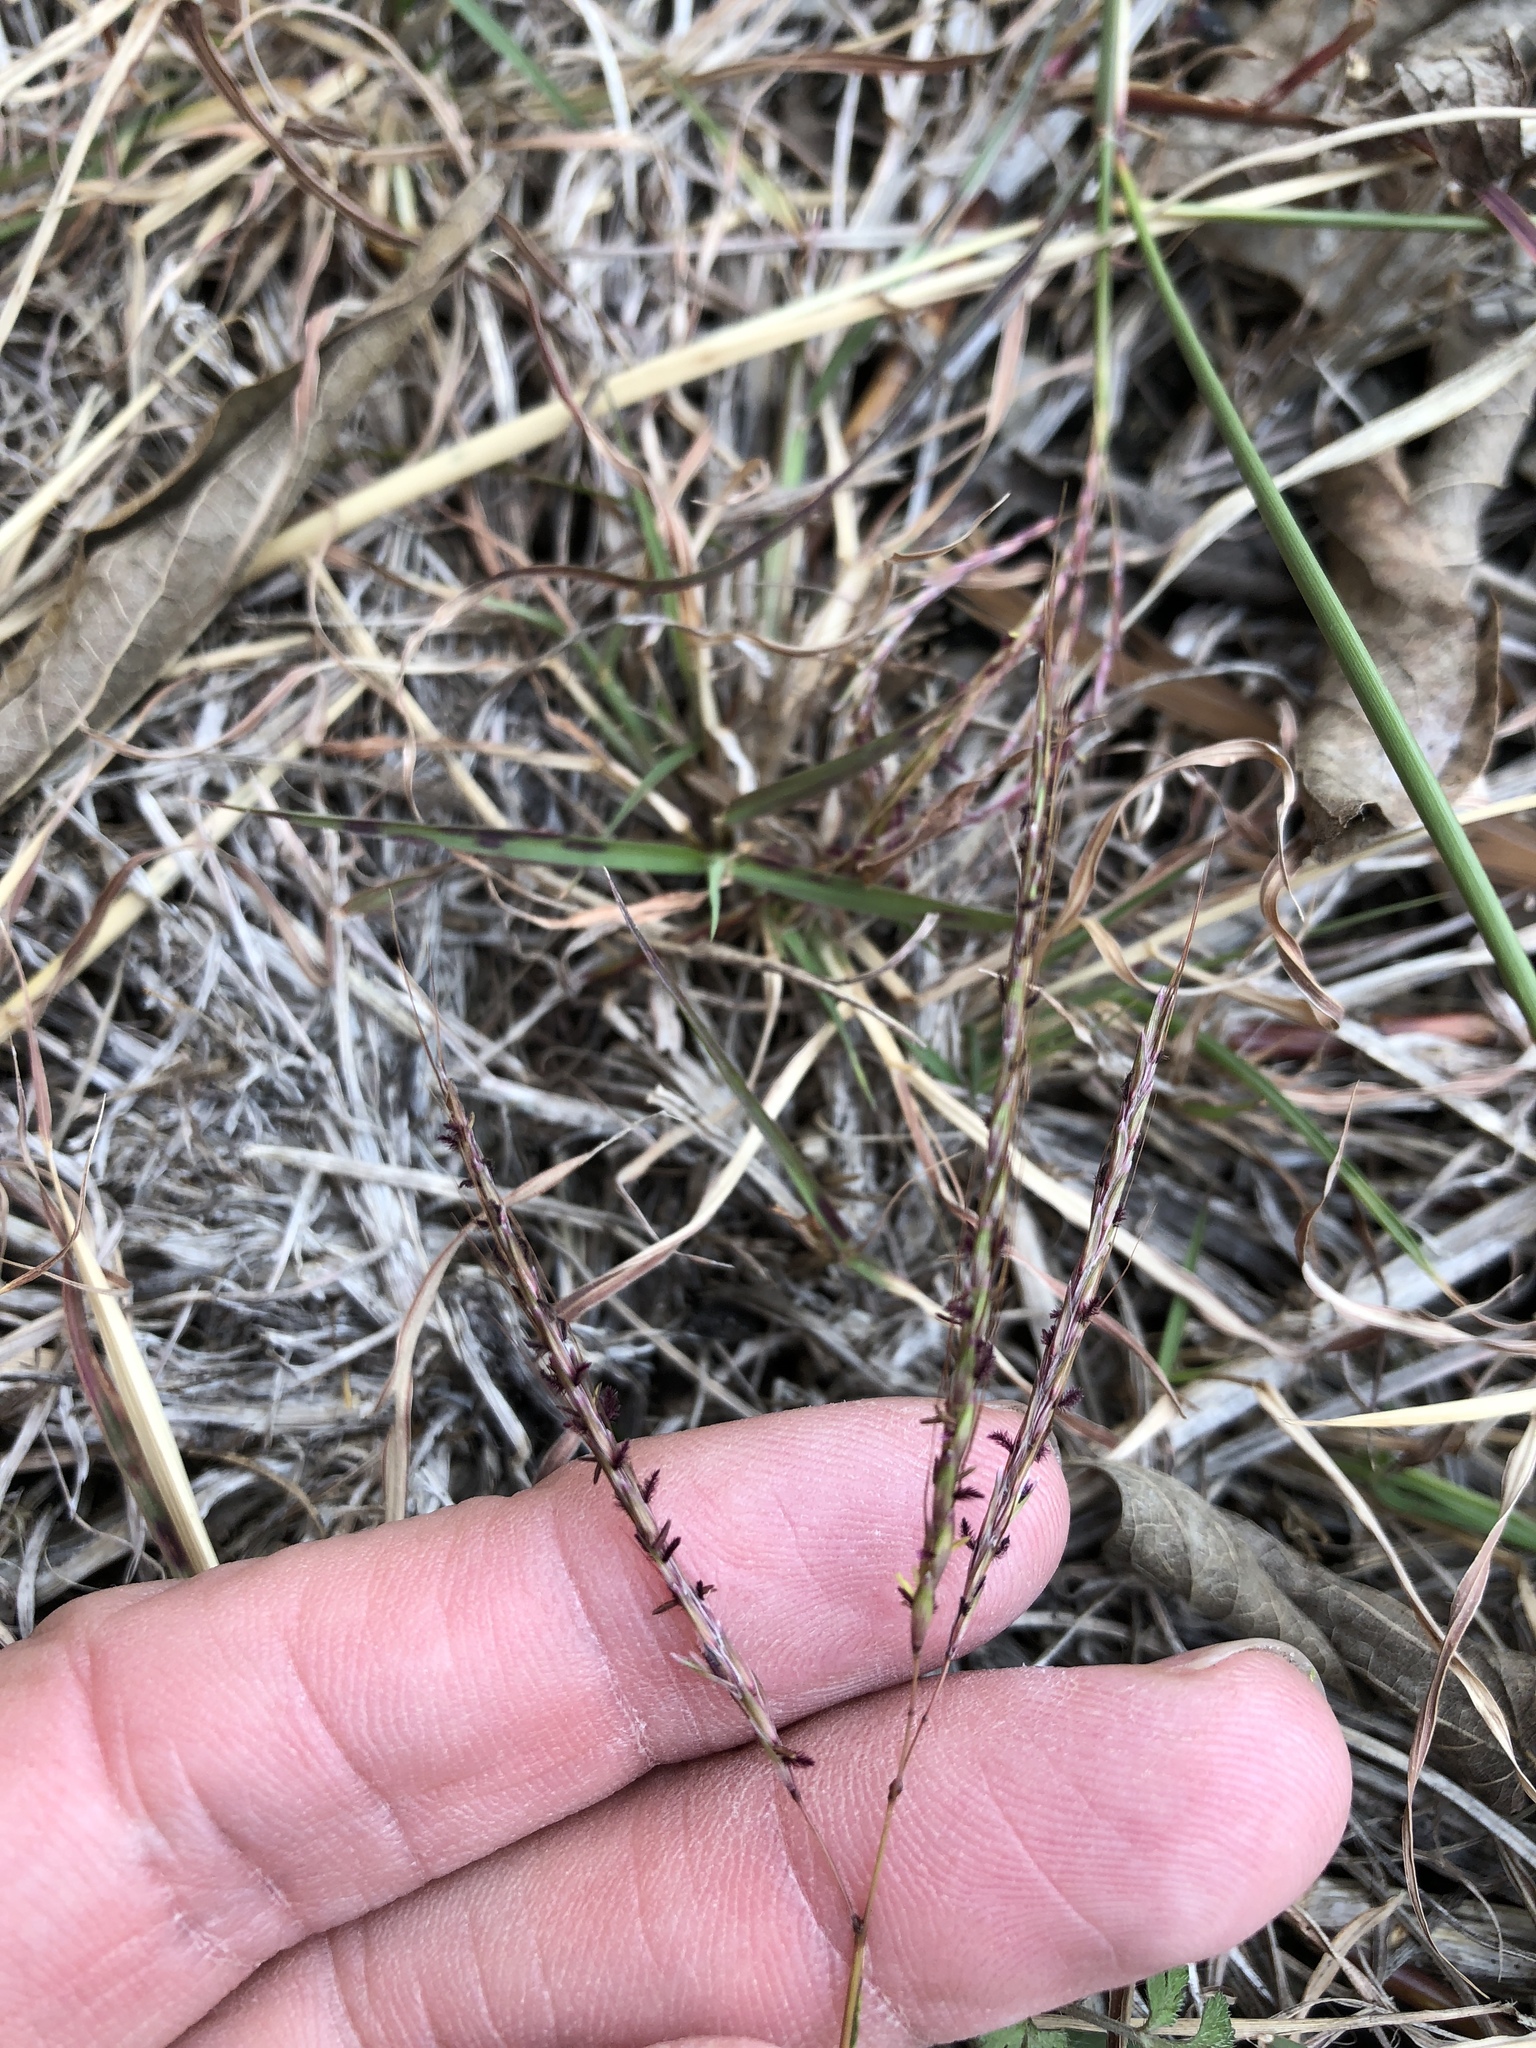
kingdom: Plantae
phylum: Tracheophyta
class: Liliopsida
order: Poales
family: Poaceae
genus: Bothriochloa
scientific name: Bothriochloa ischaemum
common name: Yellow bluestem
